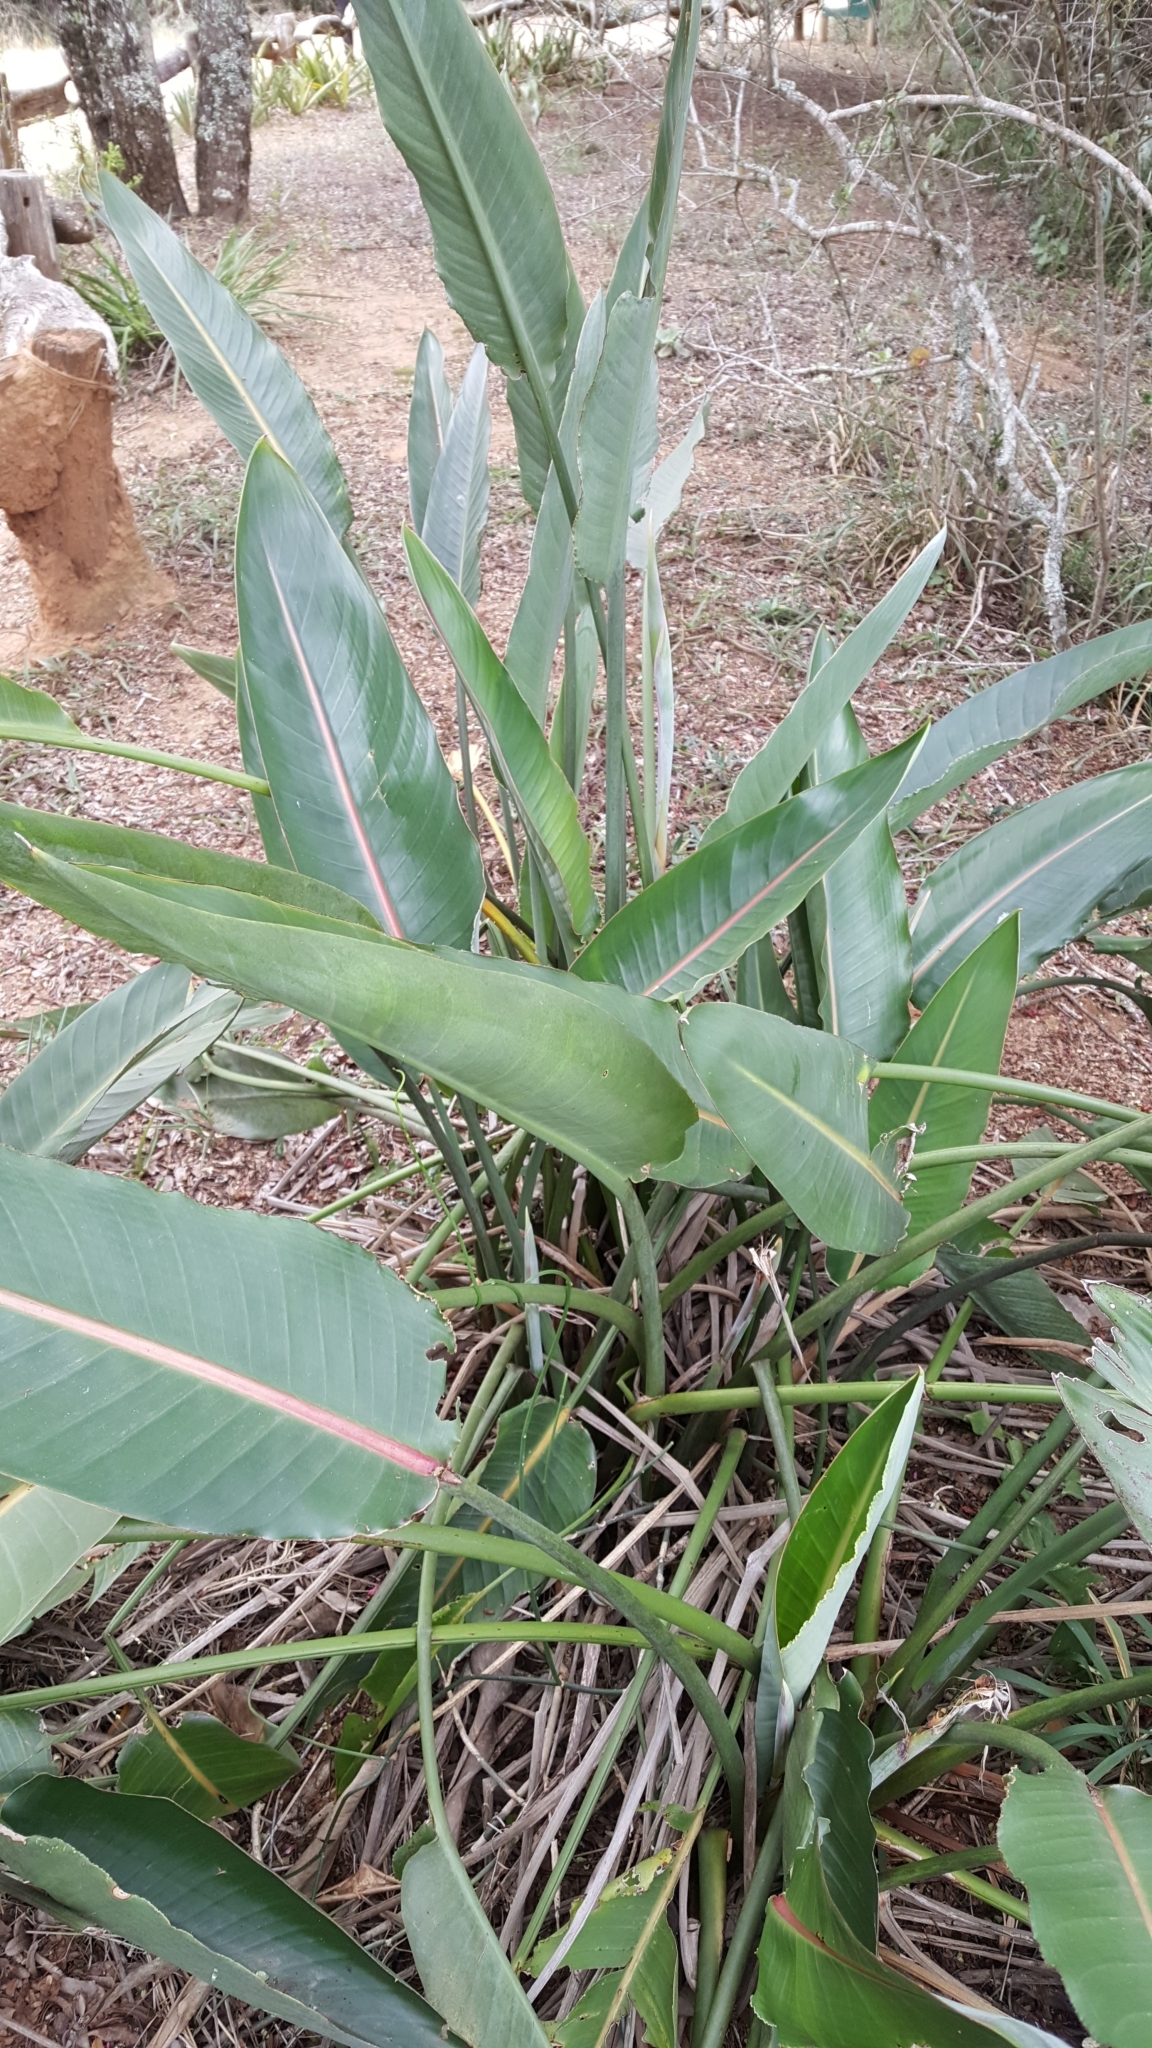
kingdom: Plantae
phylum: Tracheophyta
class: Liliopsida
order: Zingiberales
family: Strelitziaceae
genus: Strelitzia
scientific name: Strelitzia reginae
